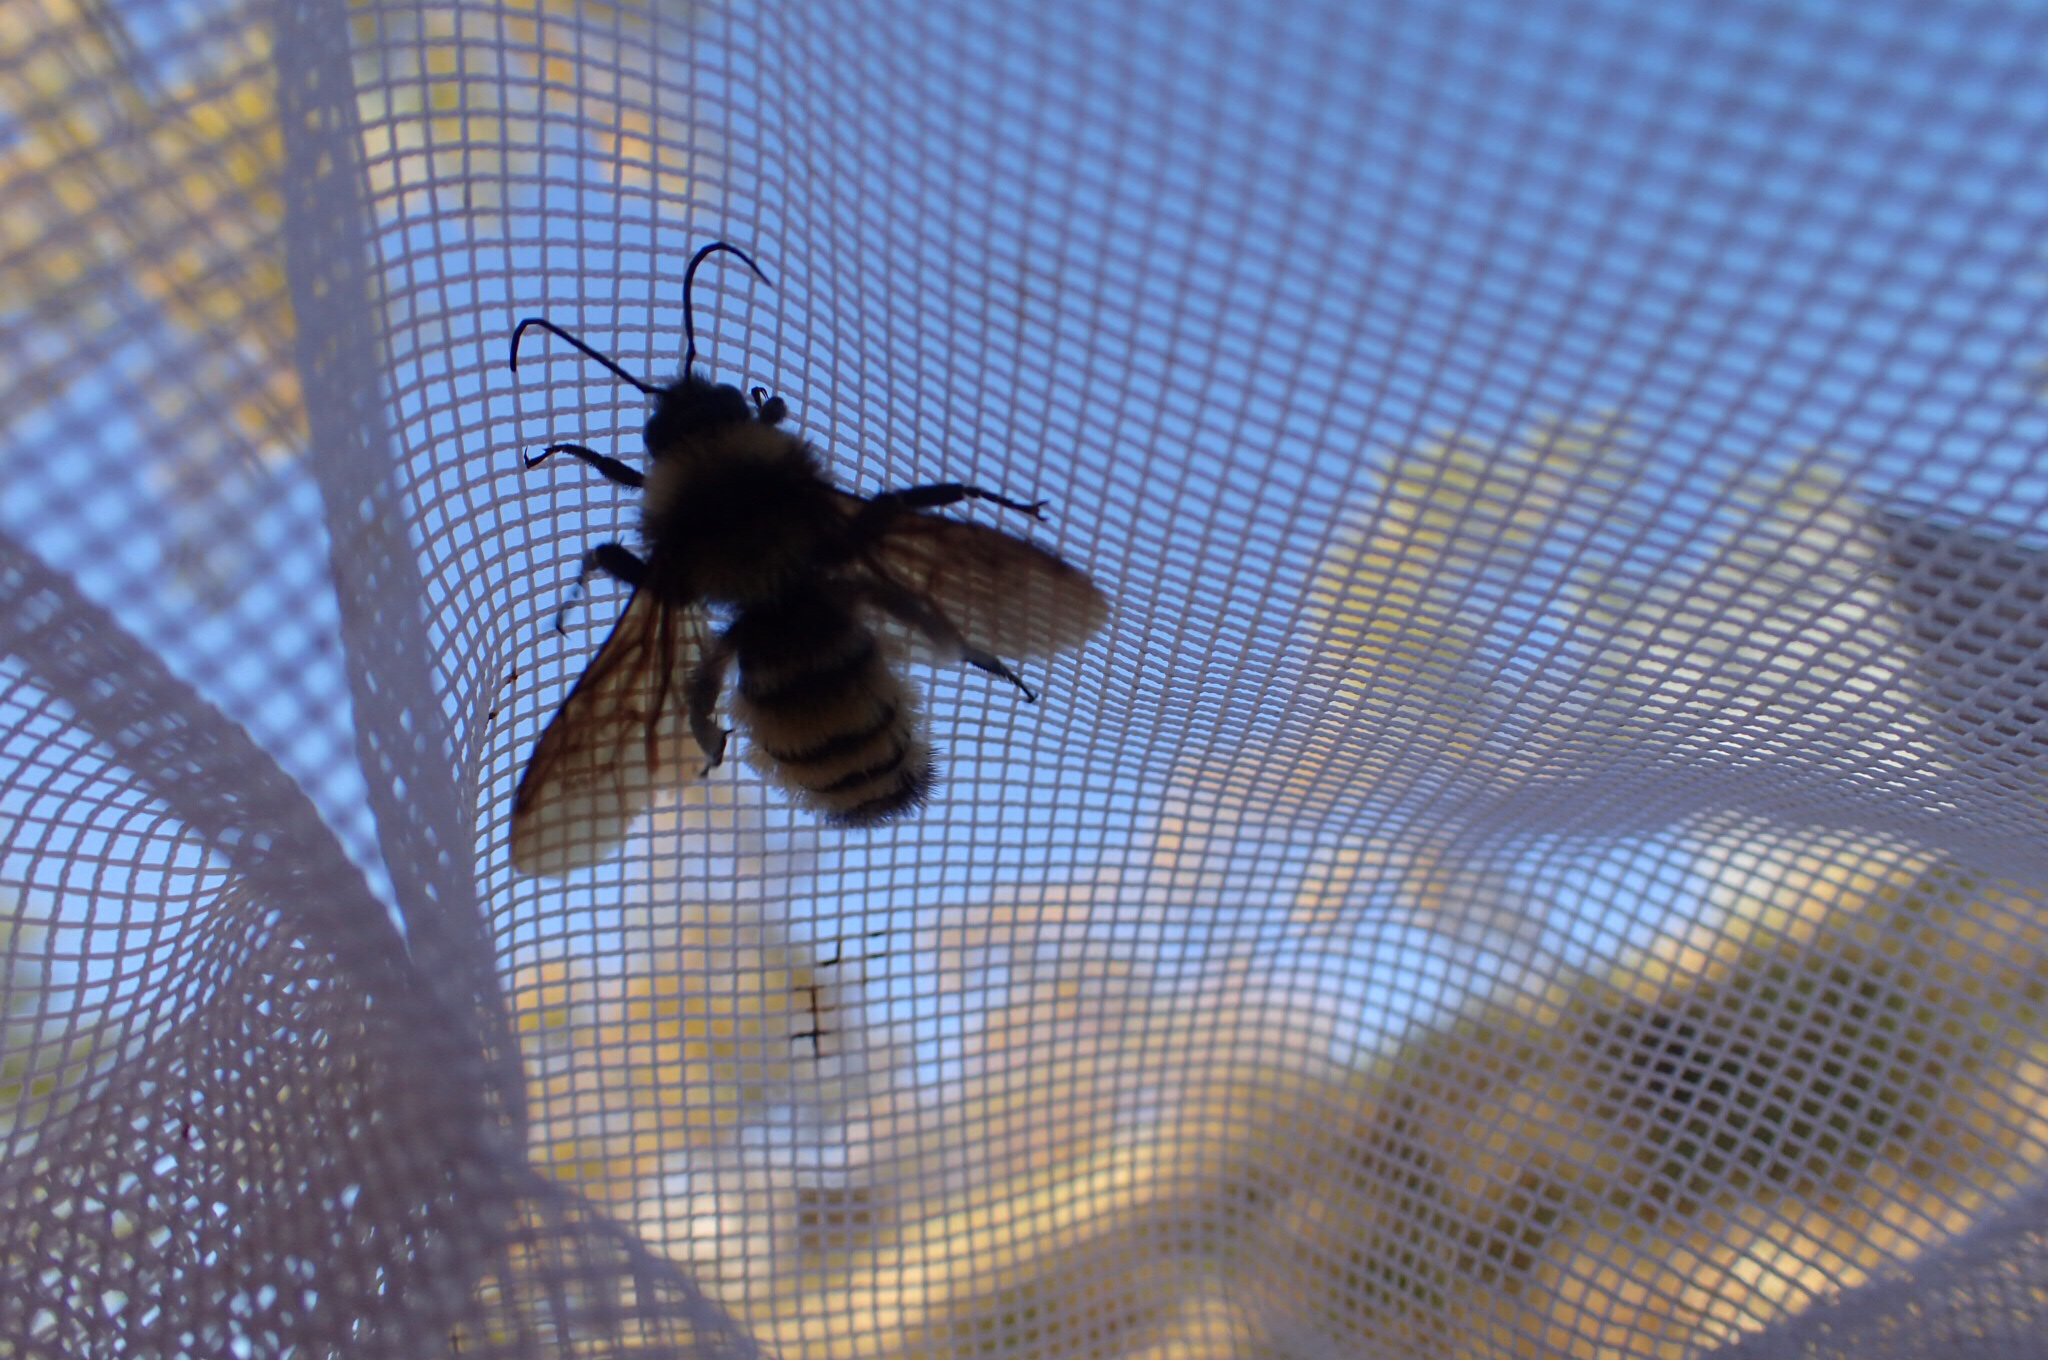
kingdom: Animalia
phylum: Arthropoda
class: Insecta
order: Hymenoptera
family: Apidae
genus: Bombus
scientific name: Bombus sonorus
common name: Sonoran bumble bee
